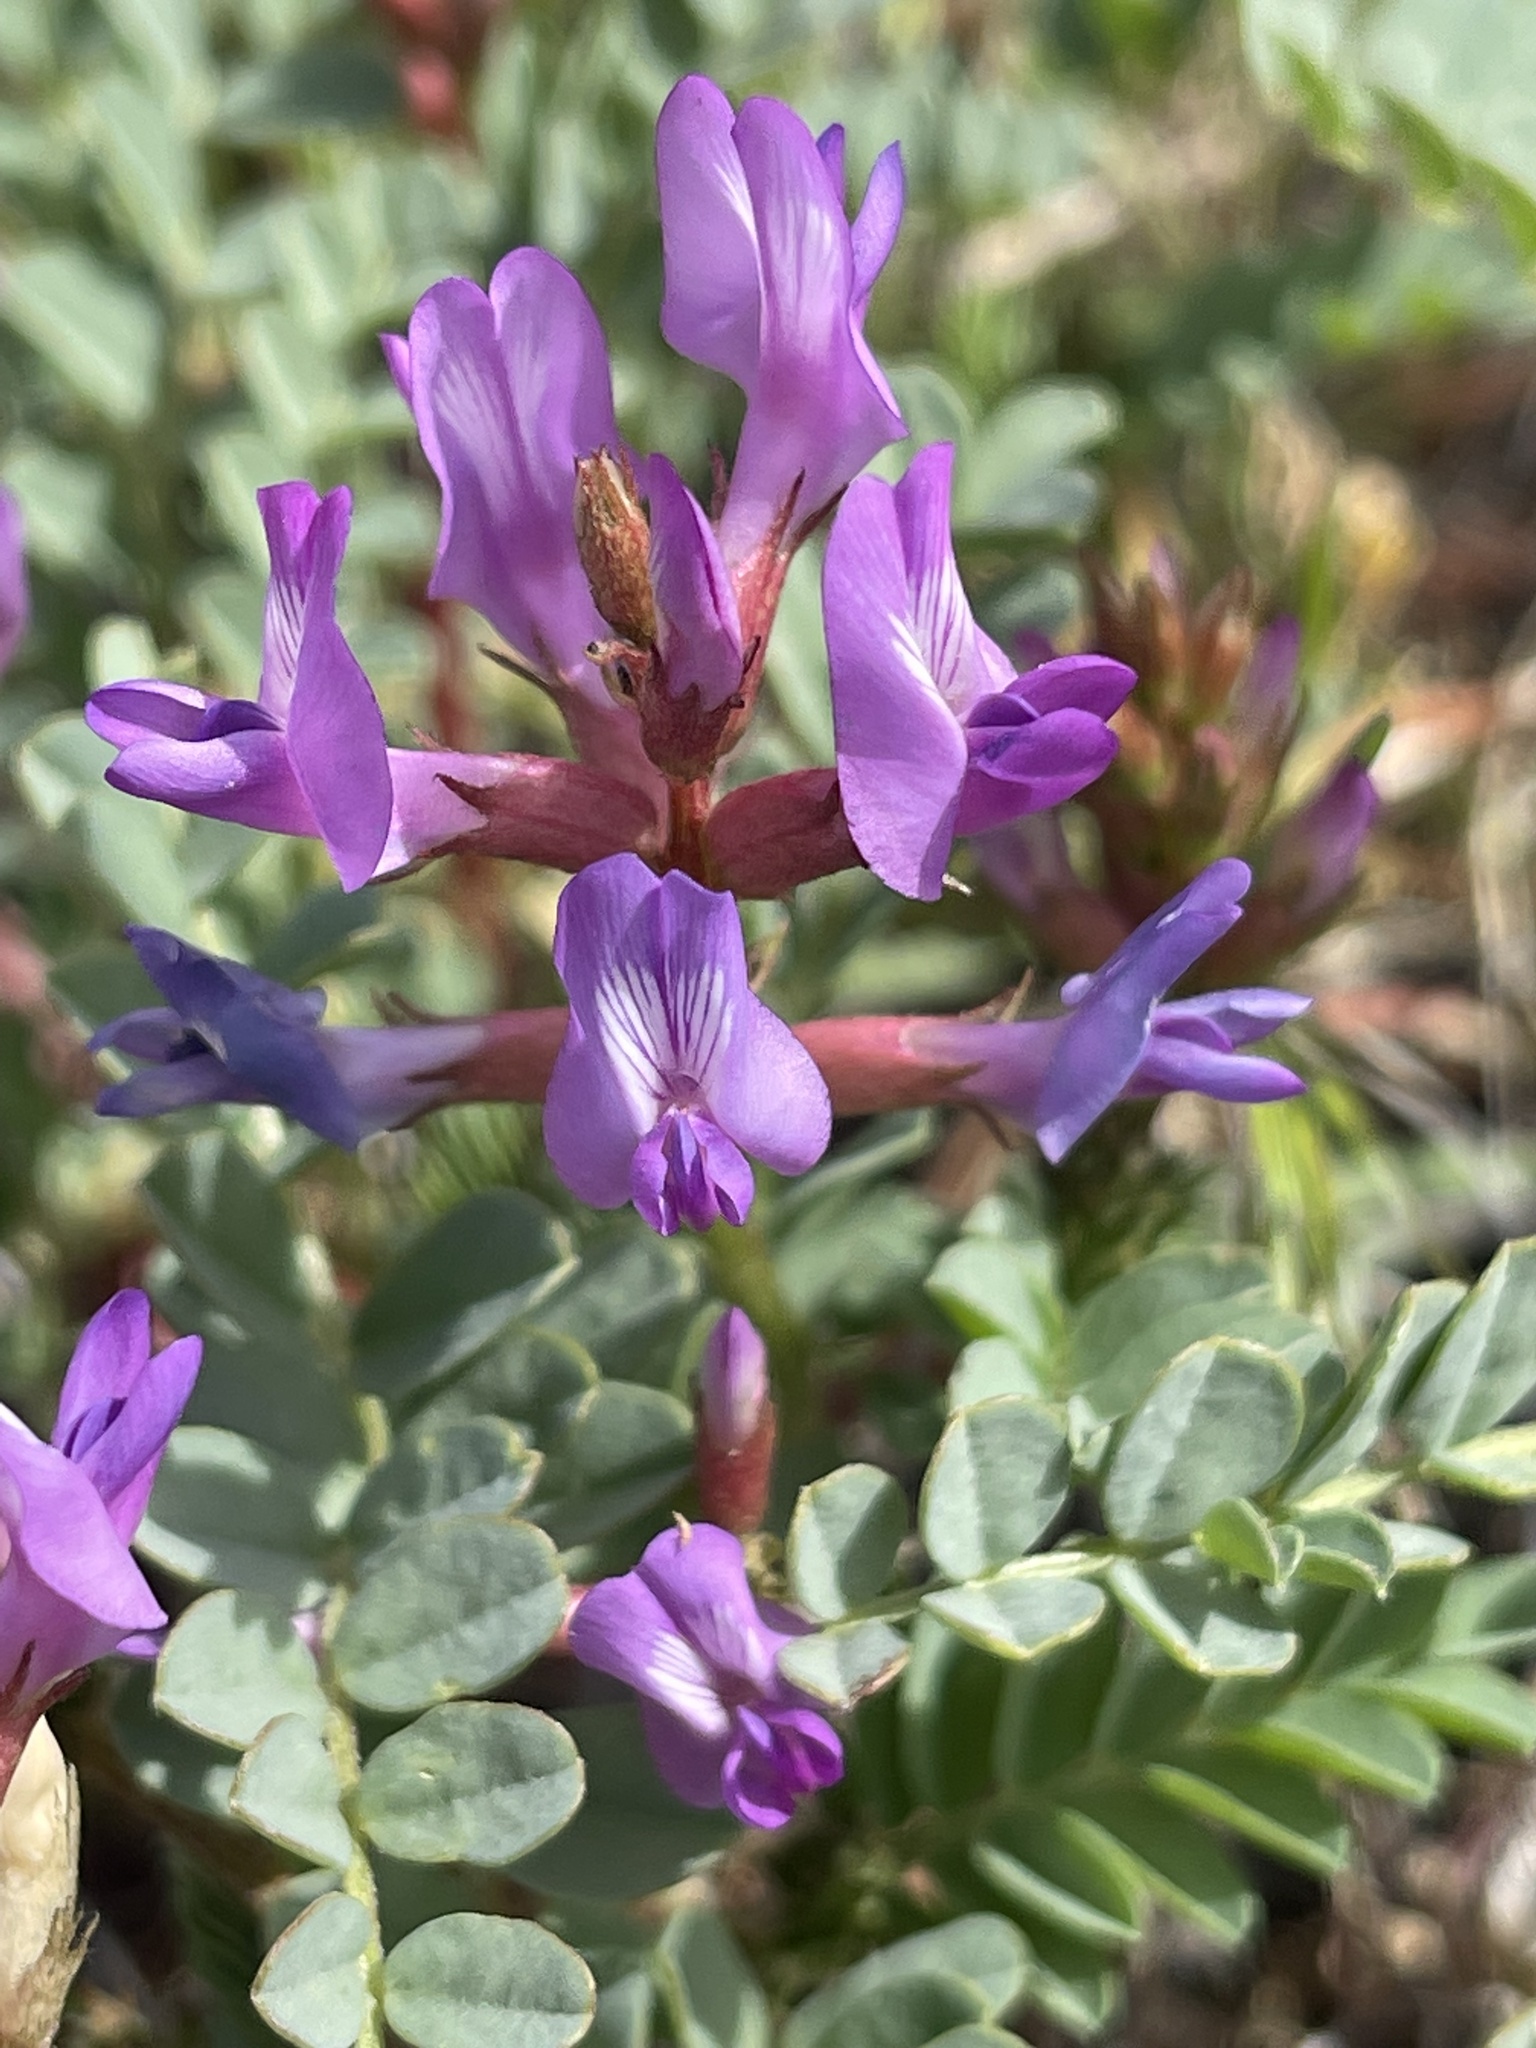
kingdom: Plantae
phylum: Tracheophyta
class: Magnoliopsida
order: Fabales
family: Fabaceae
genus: Astragalus
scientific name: Astragalus preussii
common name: Preuss's milk-vetch
